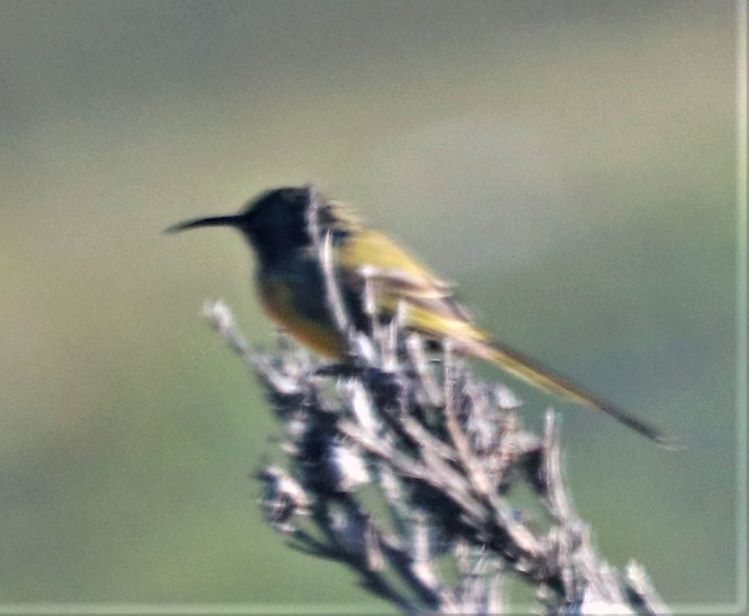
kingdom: Animalia
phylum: Chordata
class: Aves
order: Passeriformes
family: Nectariniidae
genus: Anthobaphes
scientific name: Anthobaphes violacea
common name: Orange-breasted sunbird
